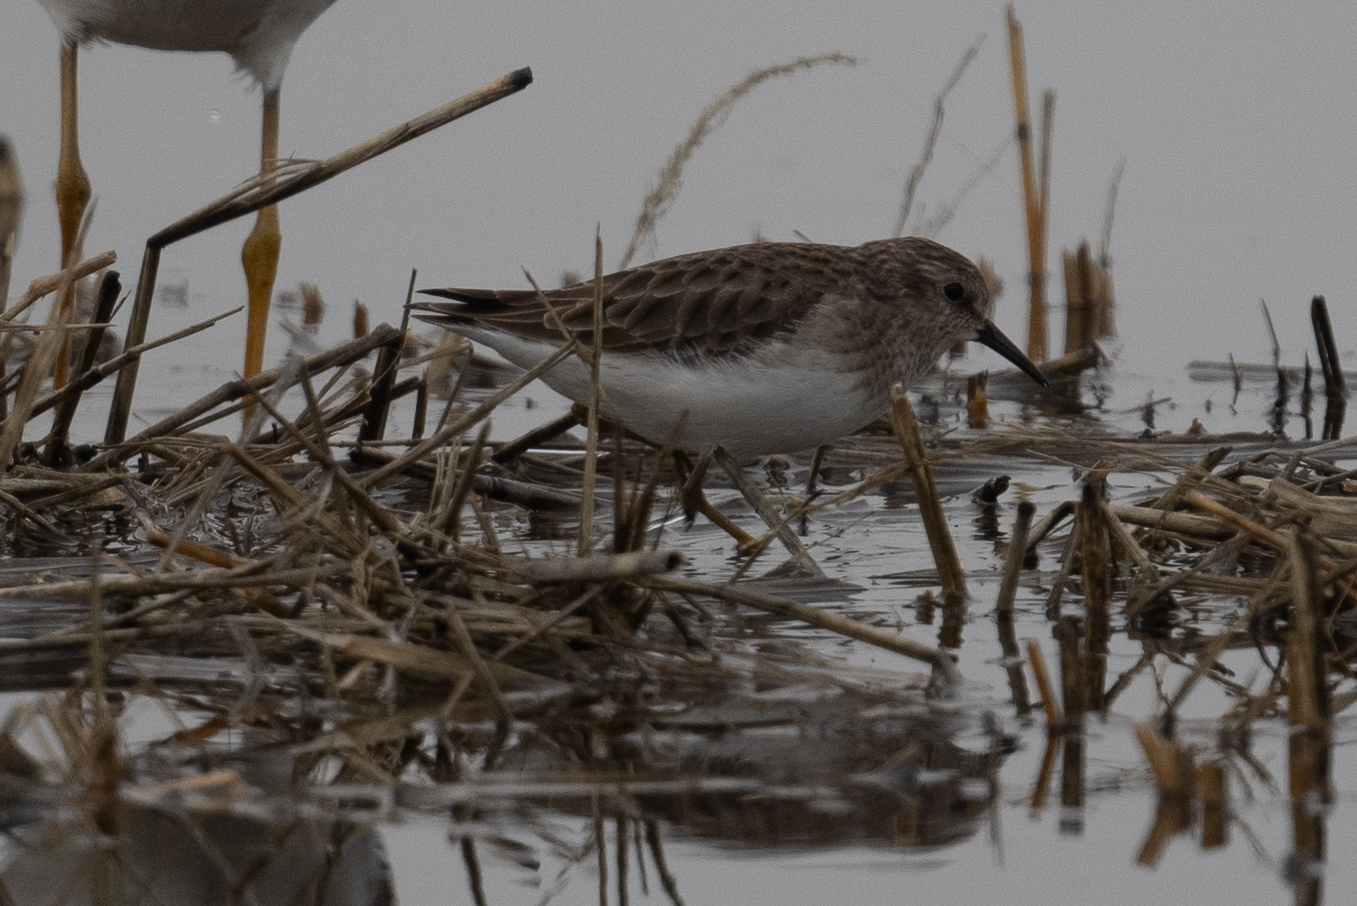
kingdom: Animalia
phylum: Chordata
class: Aves
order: Charadriiformes
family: Scolopacidae
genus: Calidris
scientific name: Calidris minutilla
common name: Least sandpiper
